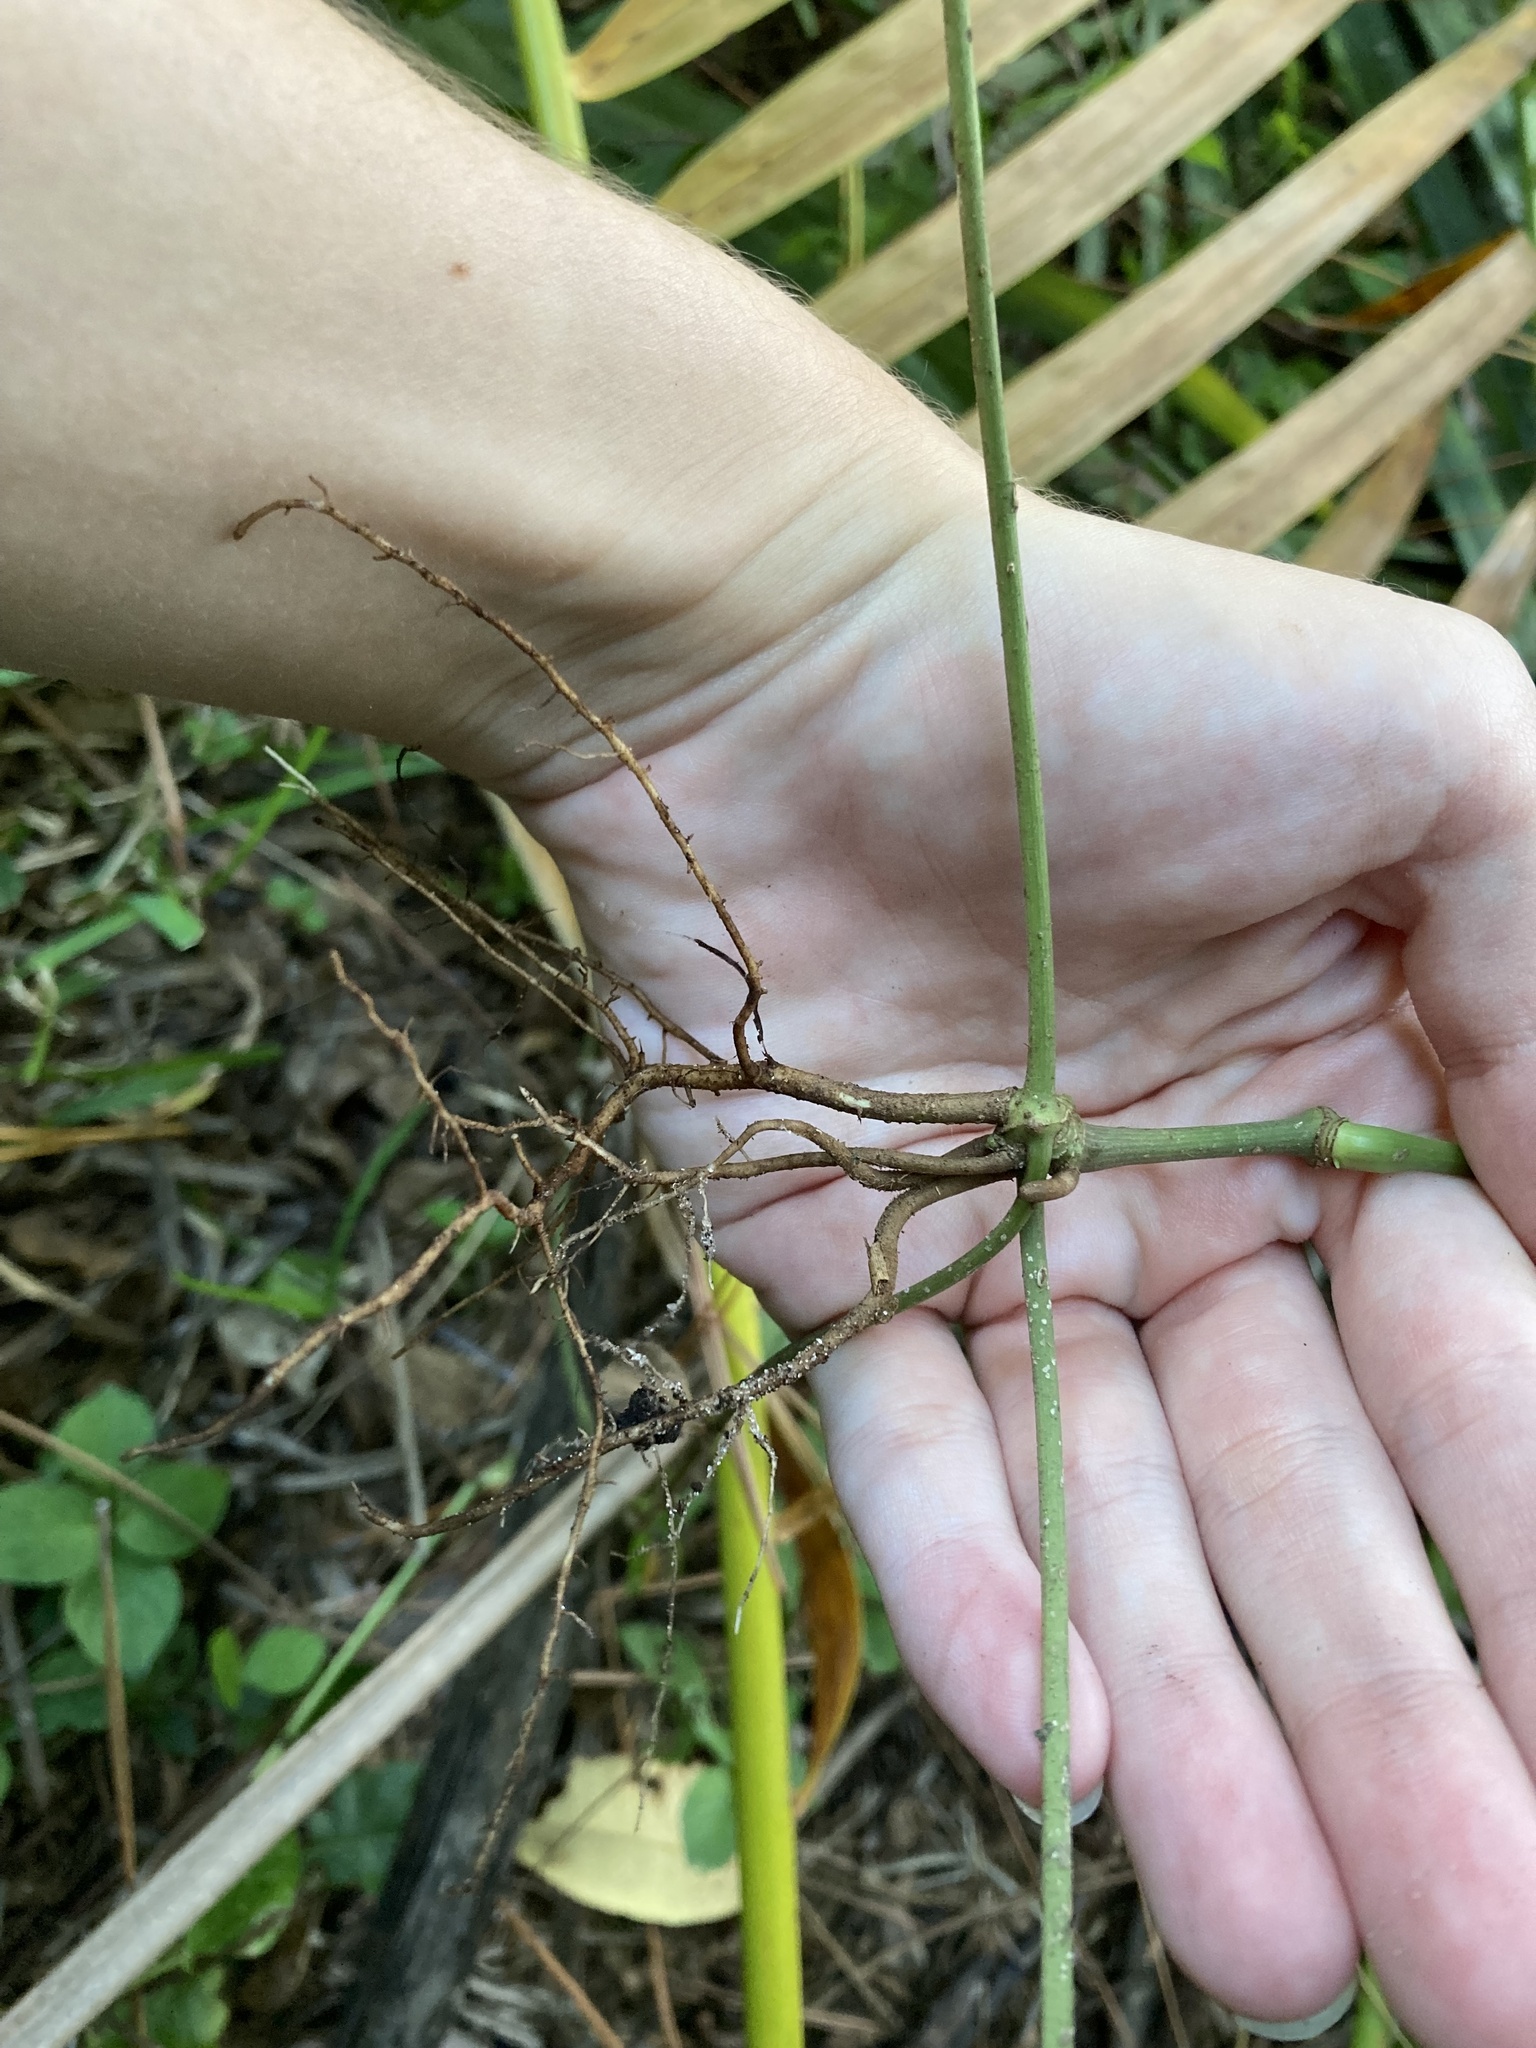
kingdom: Plantae
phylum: Tracheophyta
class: Magnoliopsida
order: Piperales
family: Piperaceae
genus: Piper
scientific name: Piper sarmentosum
